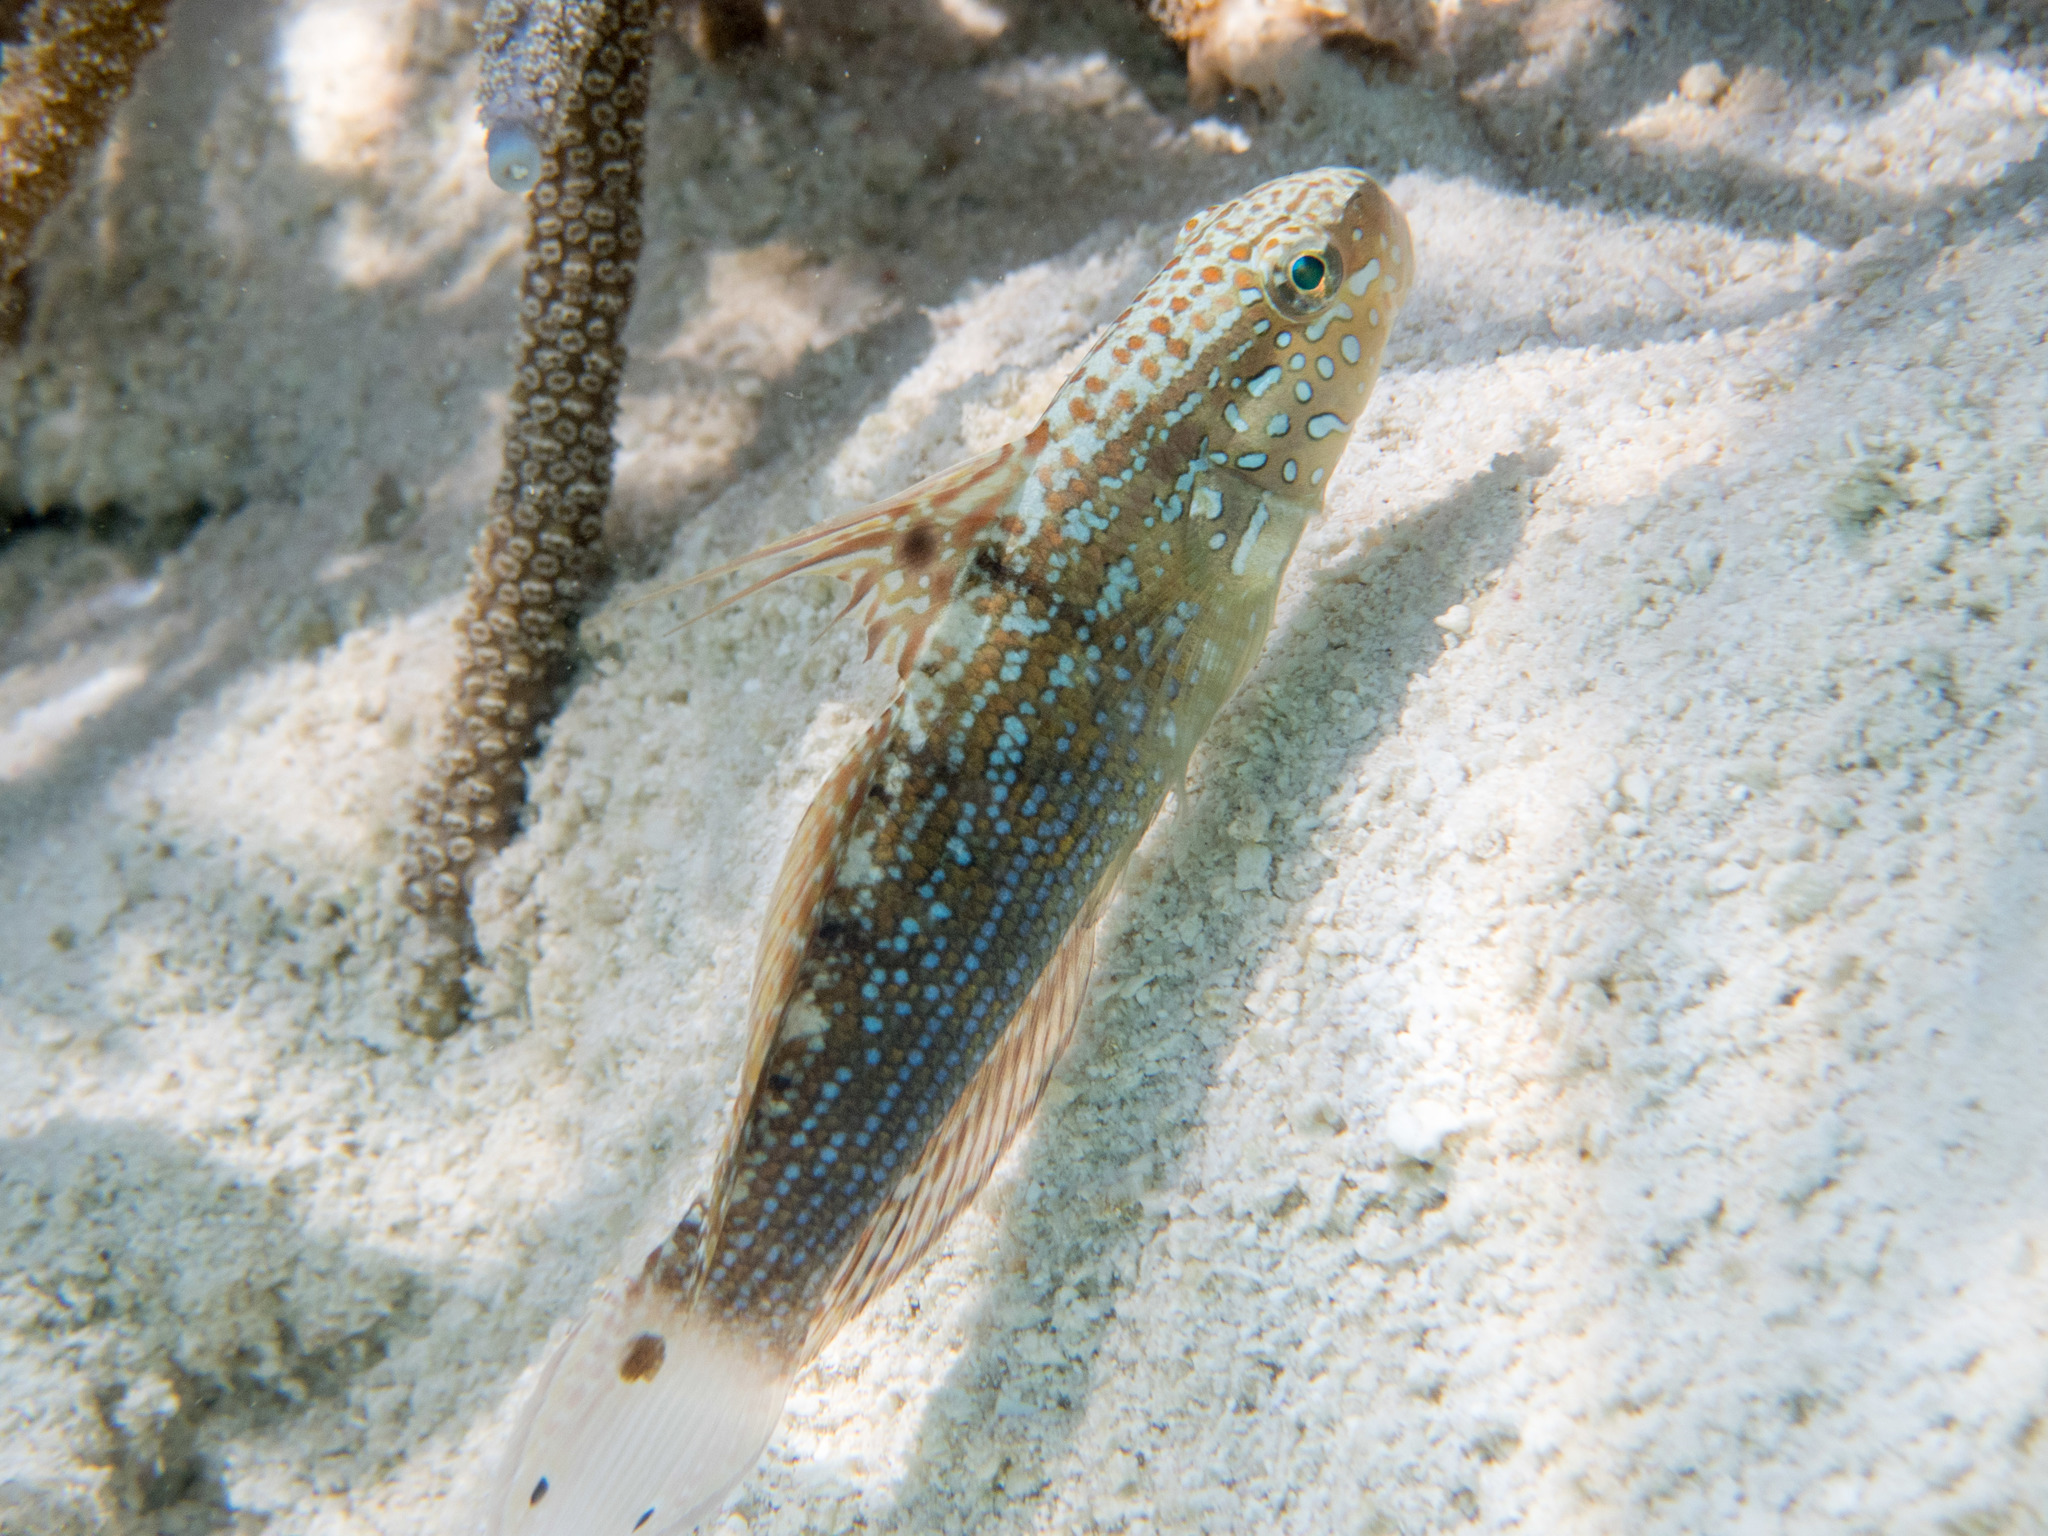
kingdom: Animalia
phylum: Chordata
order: Perciformes
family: Gobiidae
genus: Amblygobius
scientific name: Amblygobius semicinctus
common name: Halfbarred goby
